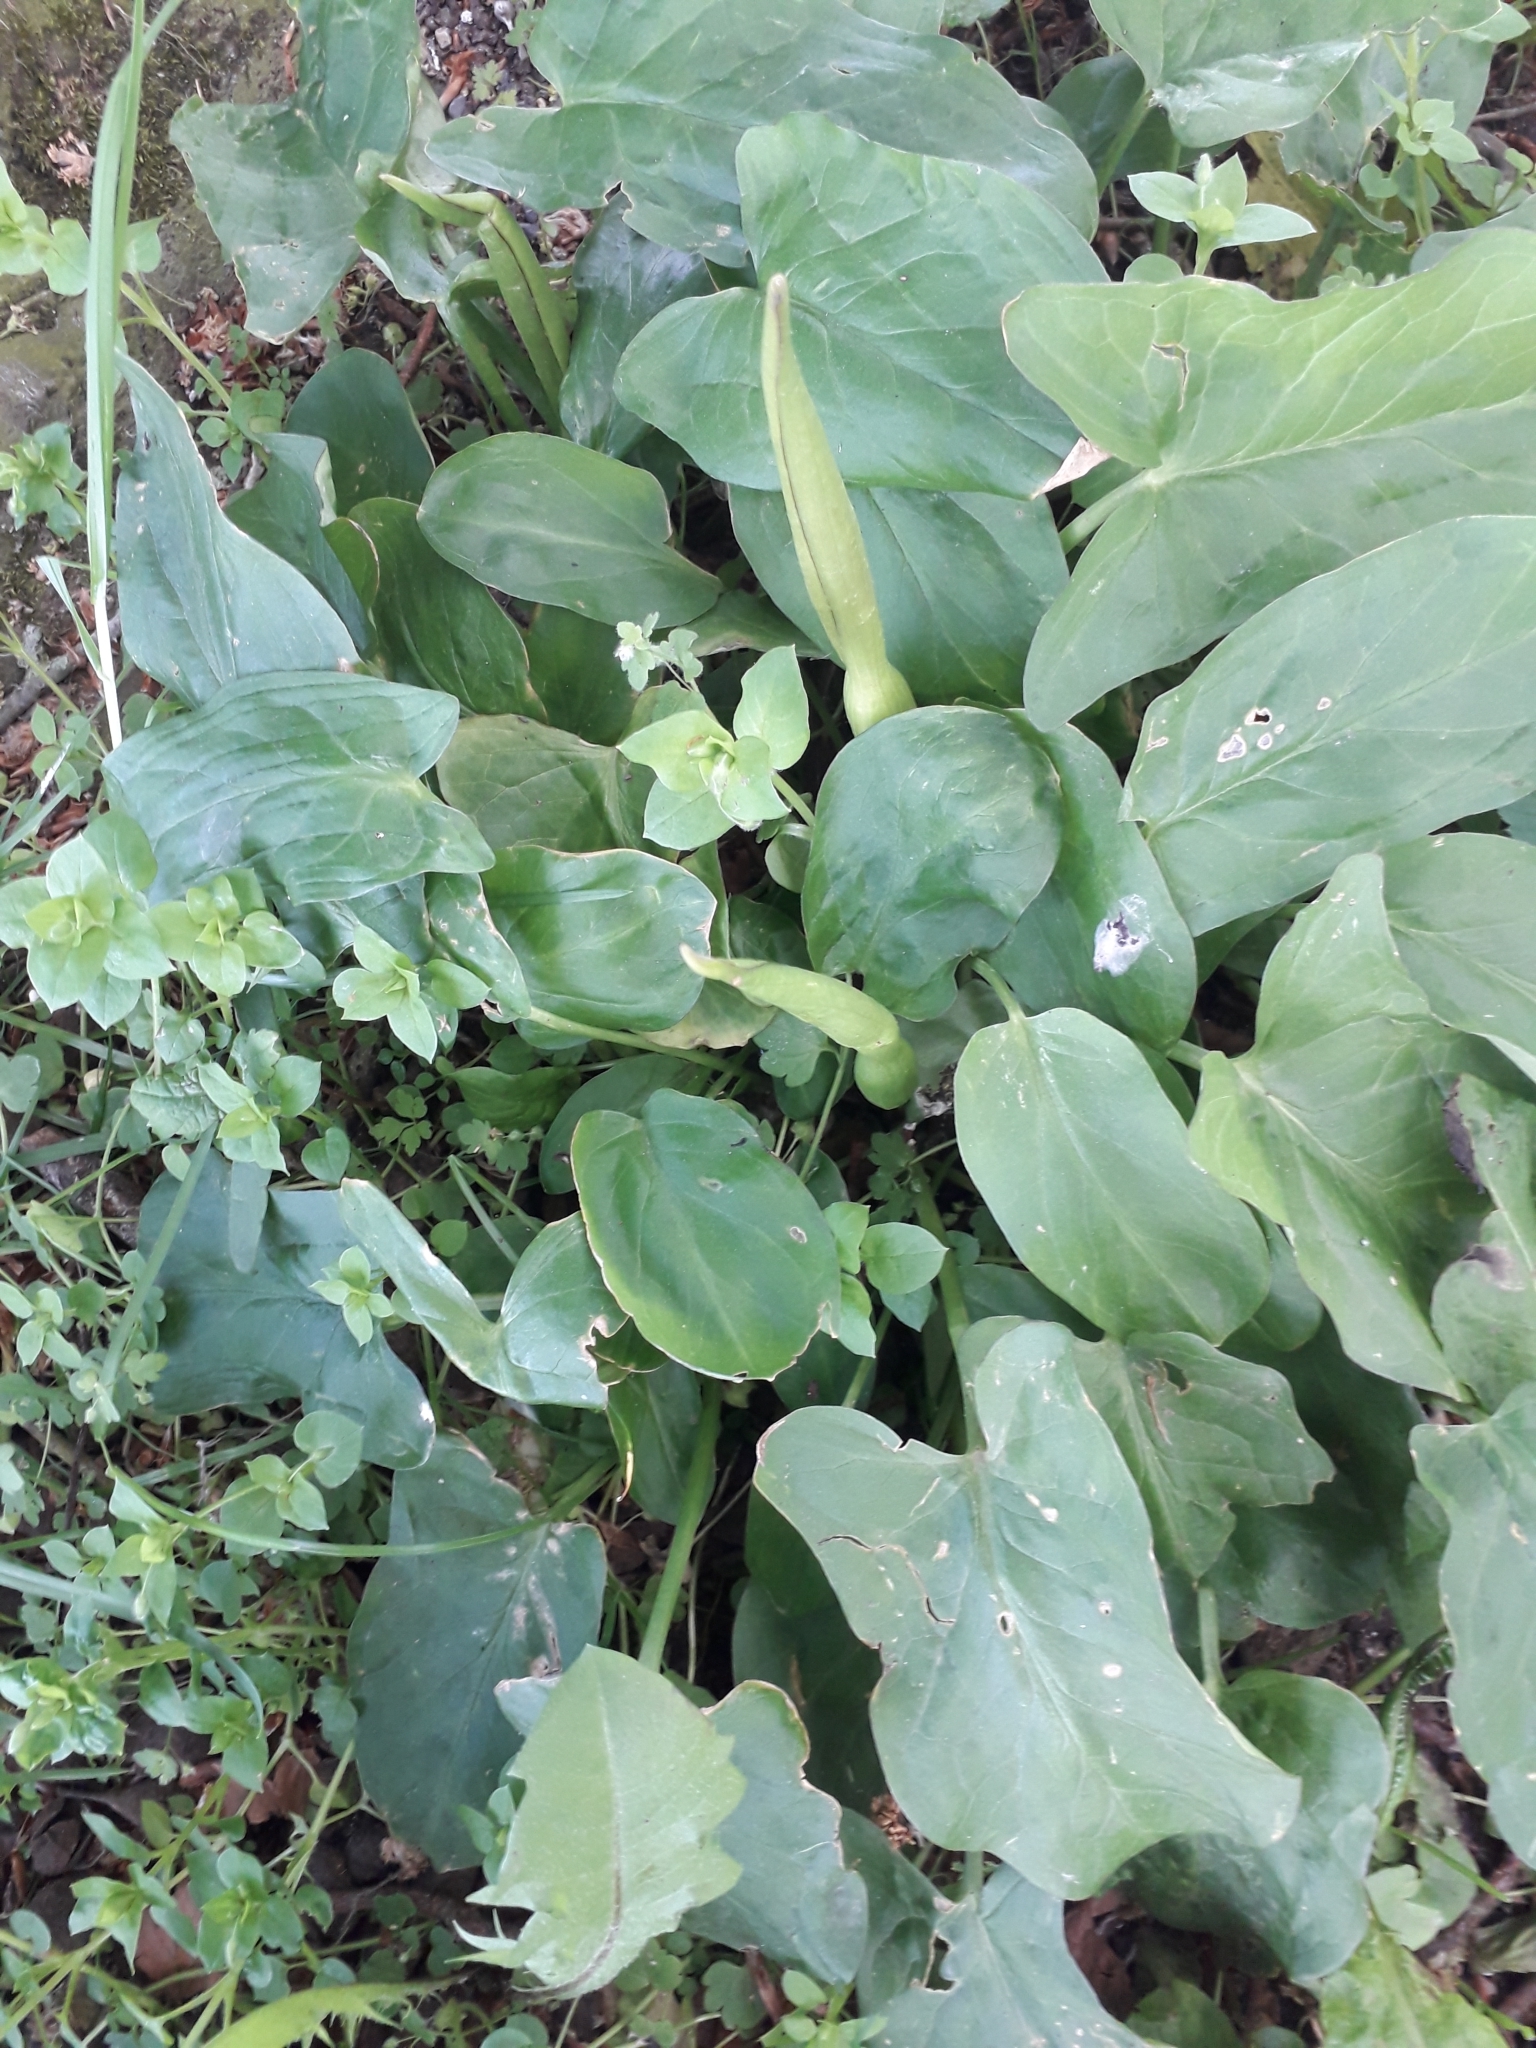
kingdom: Plantae
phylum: Tracheophyta
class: Liliopsida
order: Alismatales
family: Araceae
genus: Arum
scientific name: Arum maculatum
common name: Lords-and-ladies
